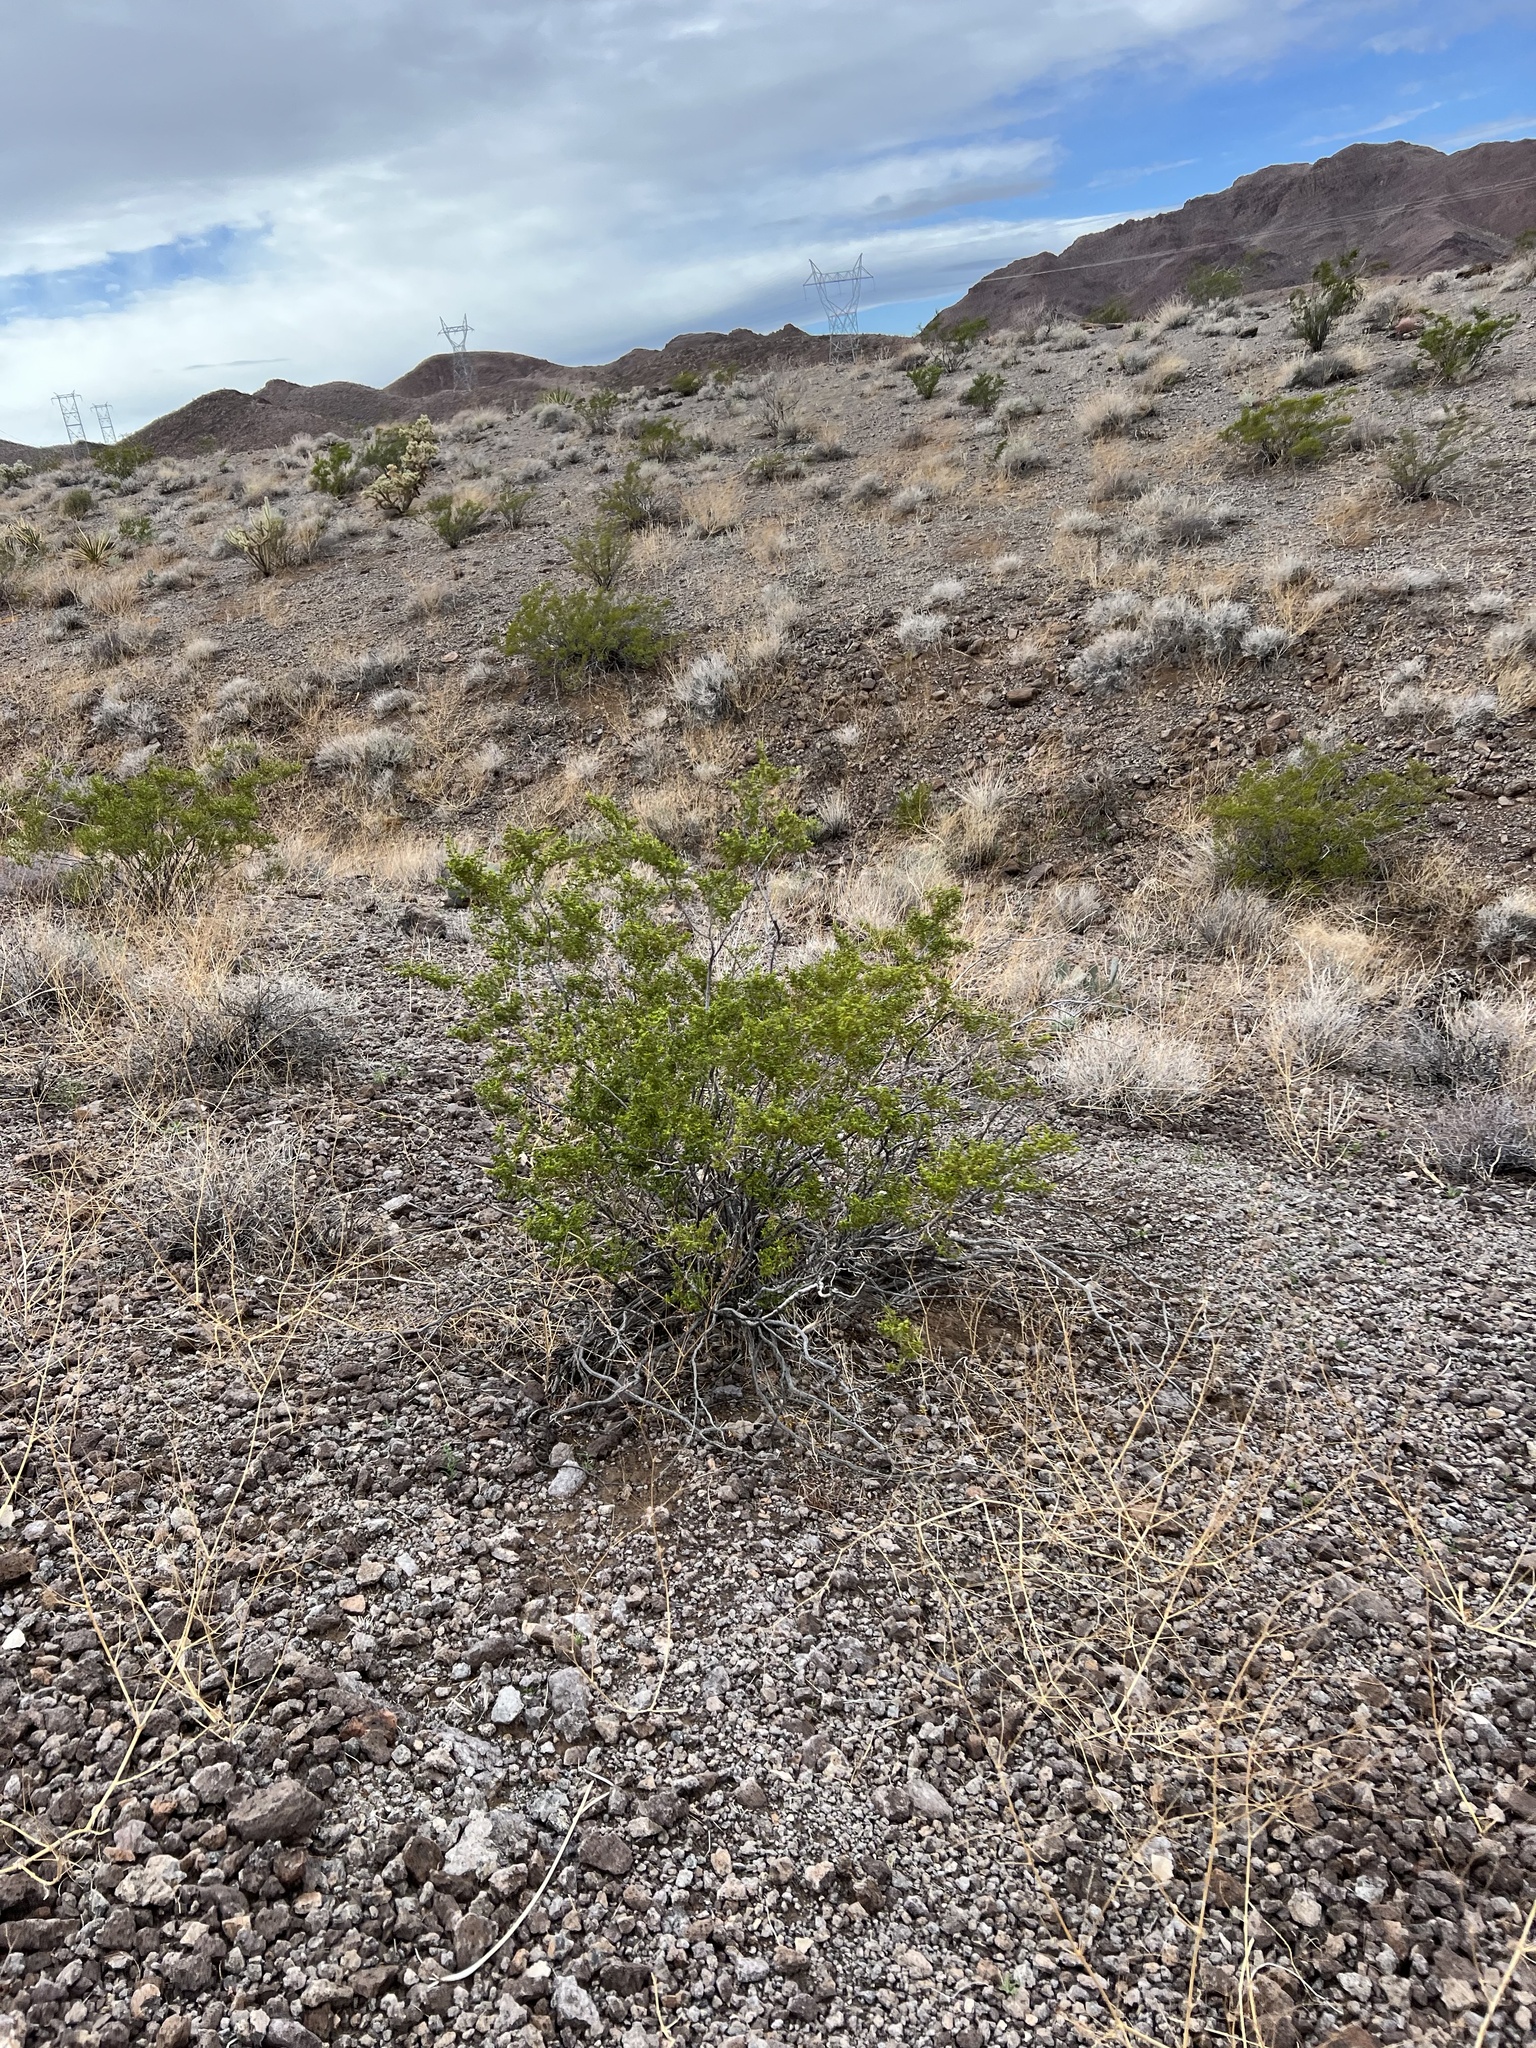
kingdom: Plantae
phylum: Tracheophyta
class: Magnoliopsida
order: Zygophyllales
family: Zygophyllaceae
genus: Larrea
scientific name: Larrea tridentata
